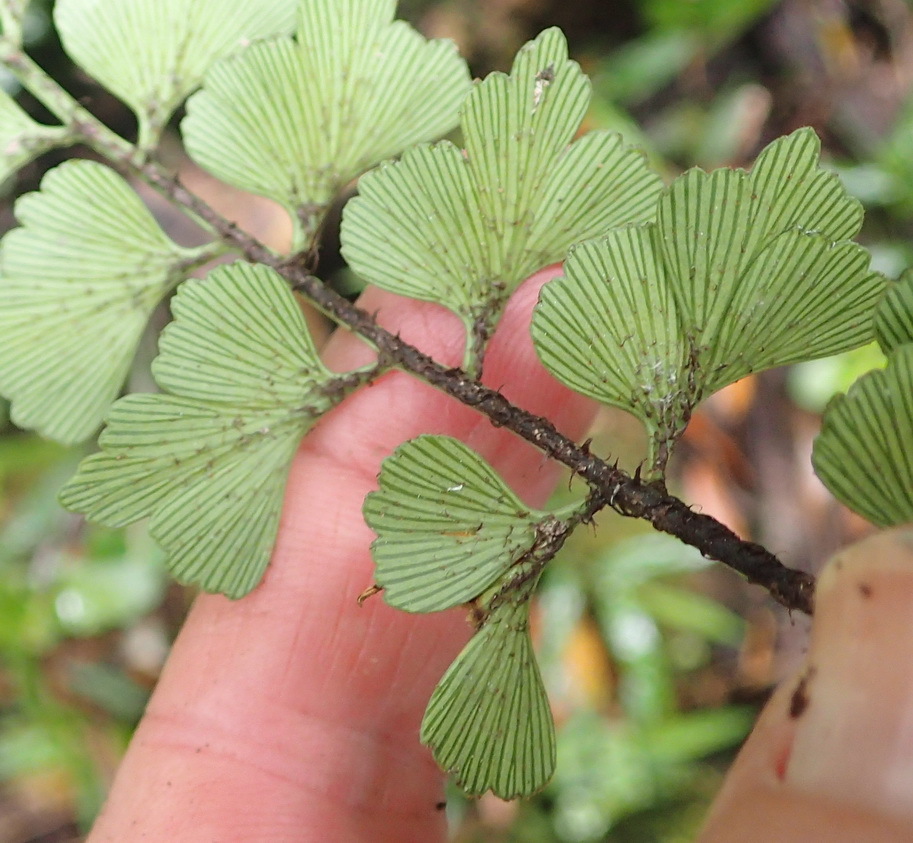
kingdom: Plantae
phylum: Tracheophyta
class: Polypodiopsida
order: Polypodiales
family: Aspleniaceae
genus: Asplenium
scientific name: Asplenium simii
